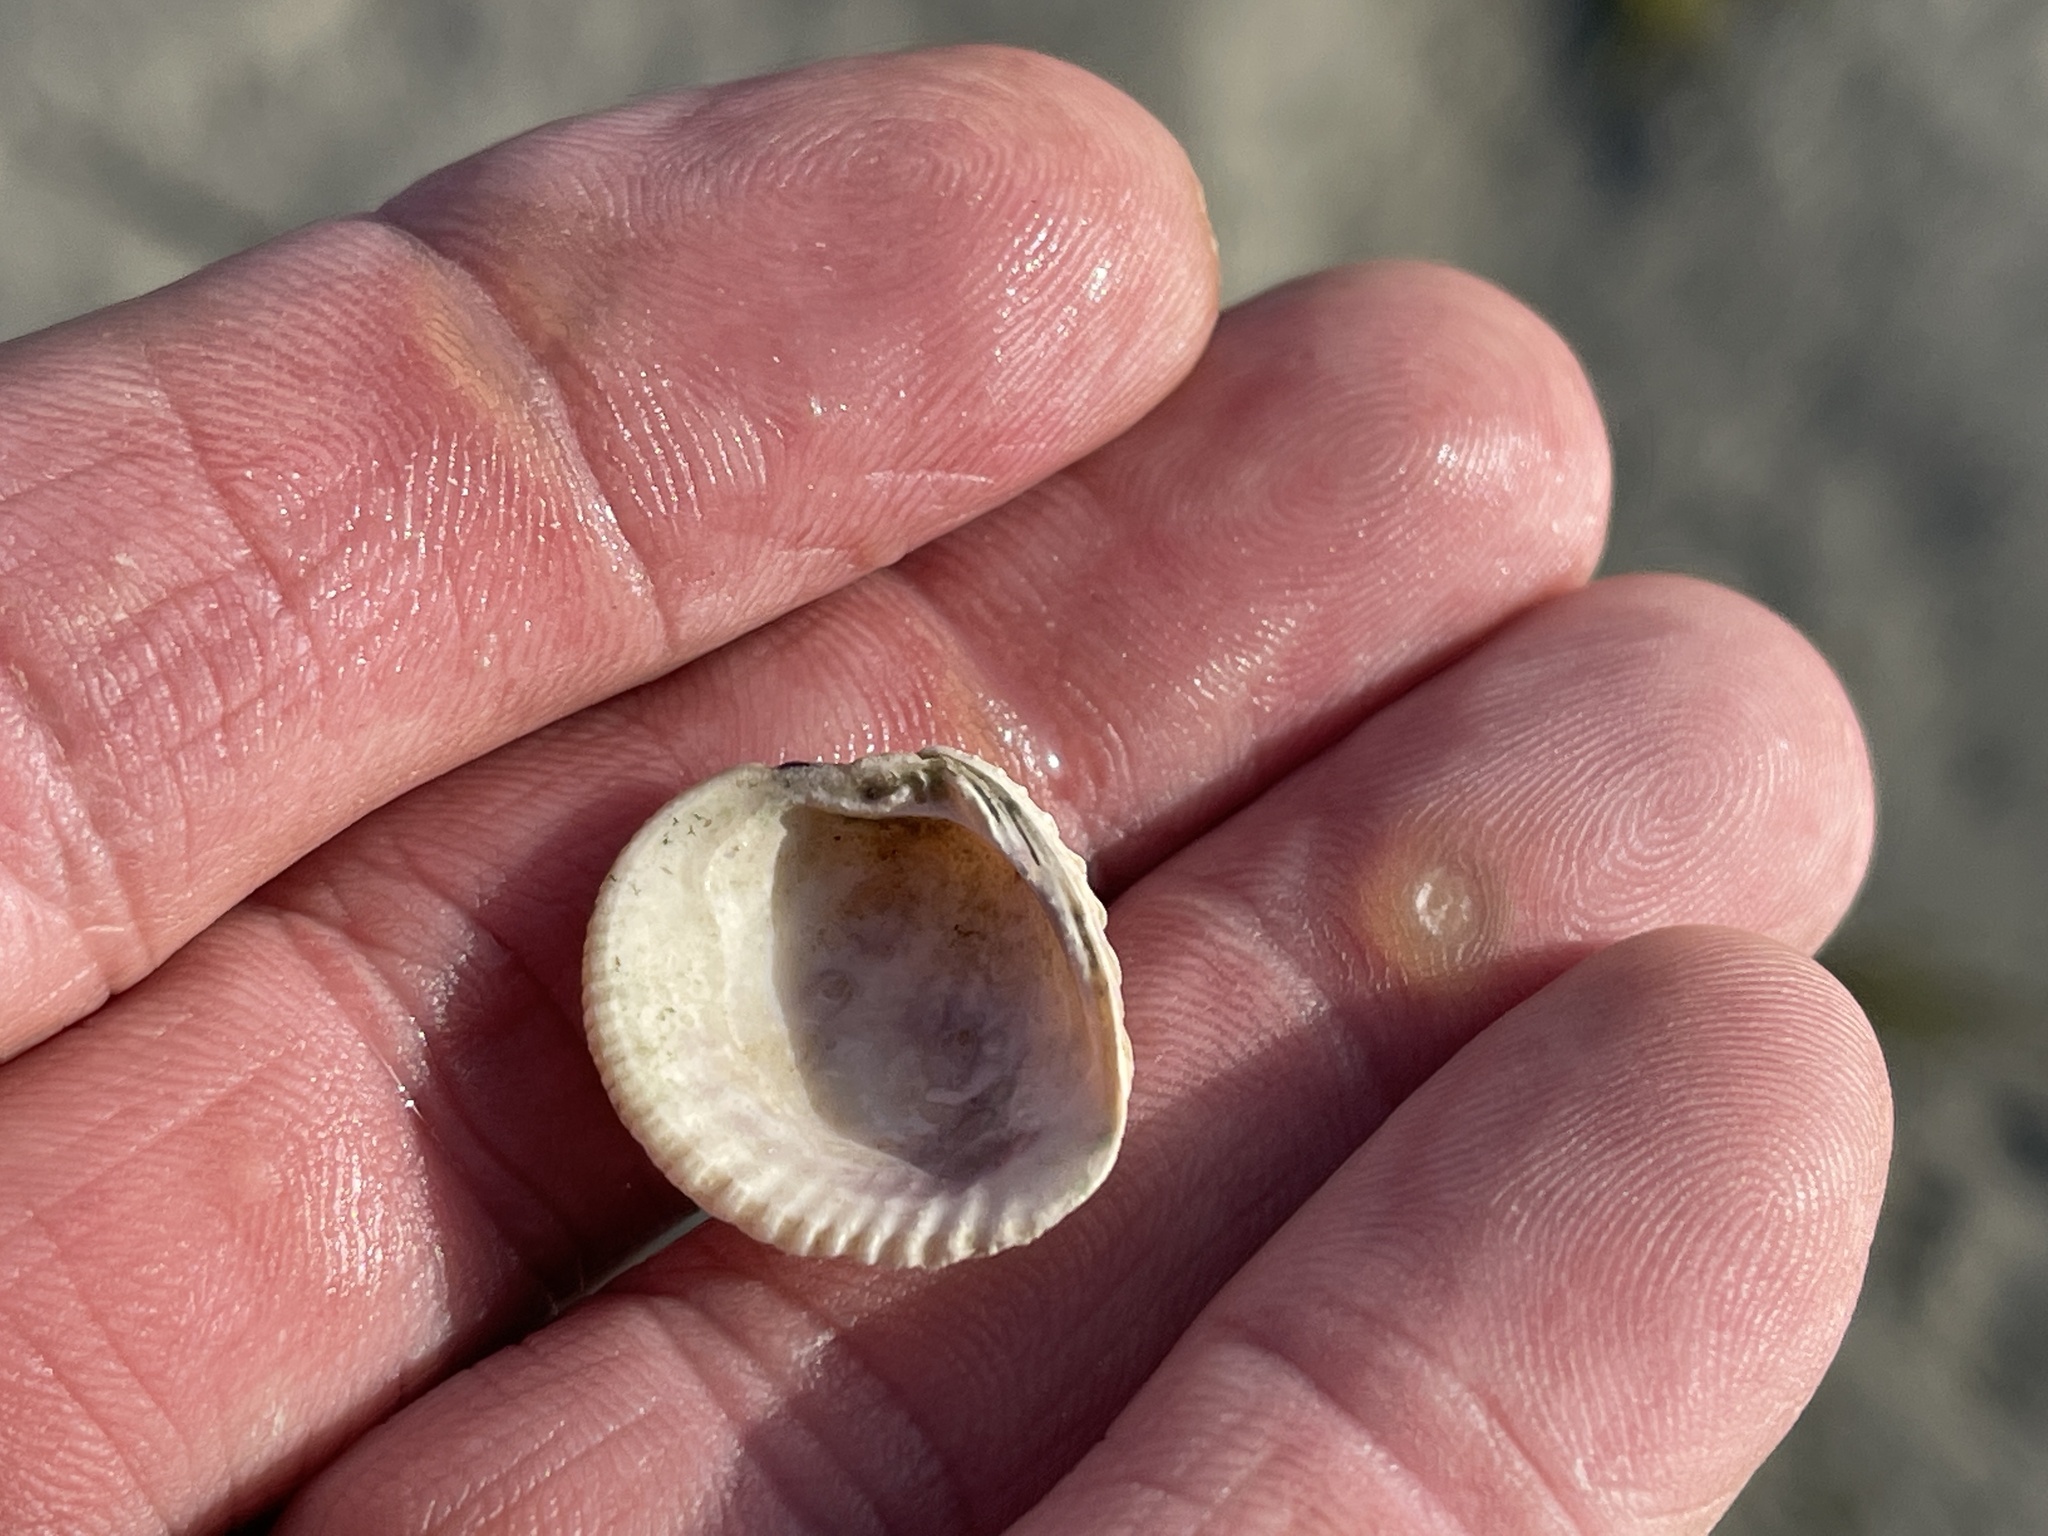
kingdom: Animalia
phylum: Mollusca
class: Bivalvia
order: Venerida
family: Veneridae
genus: Chione
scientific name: Chione elevata
